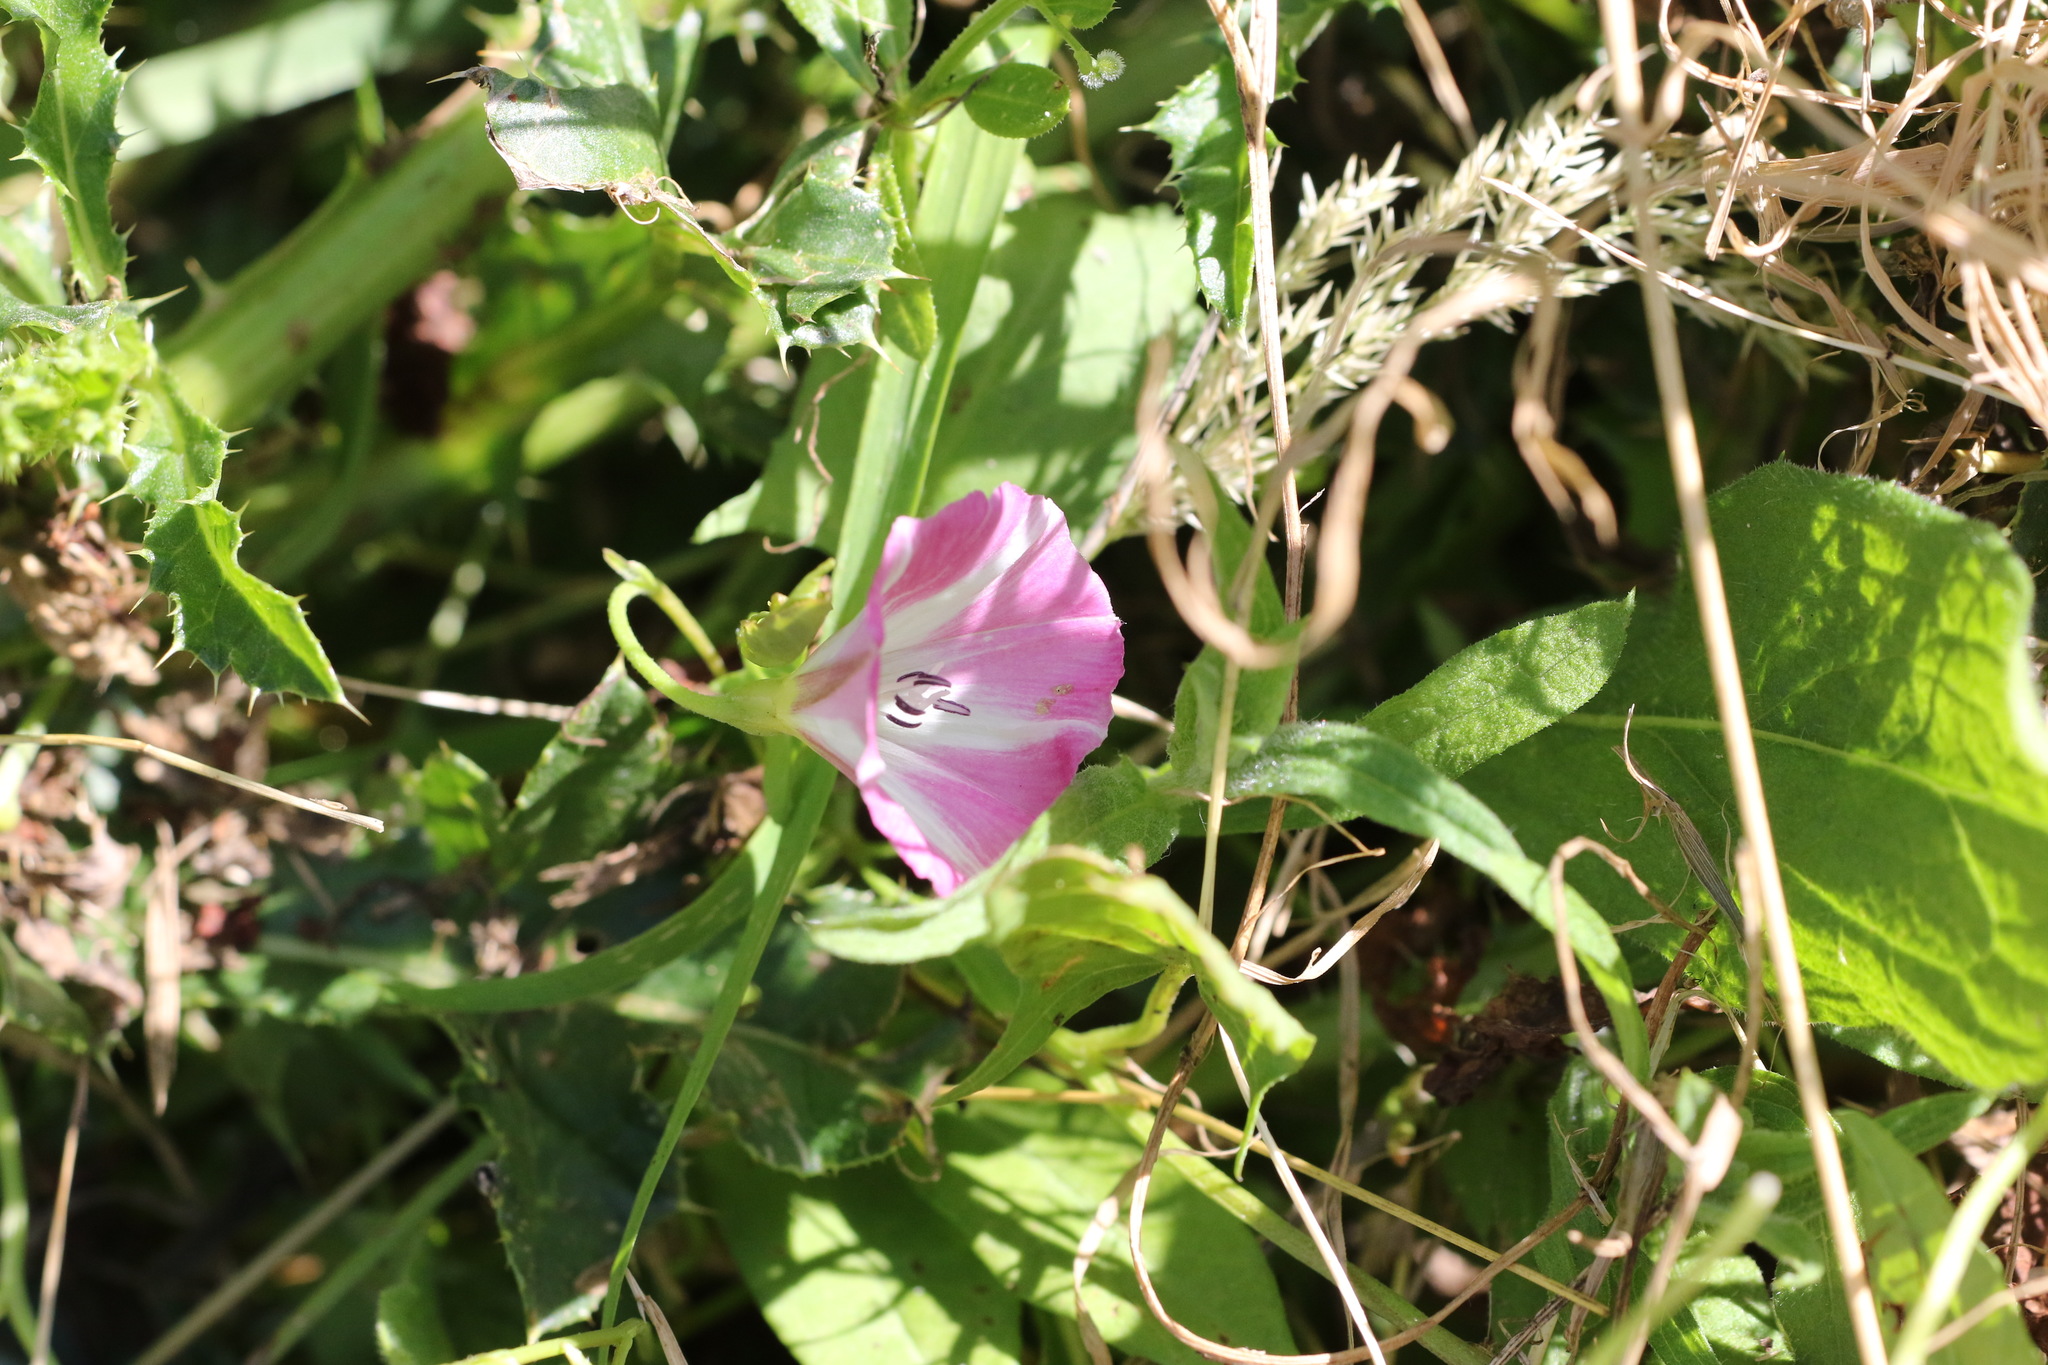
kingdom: Plantae
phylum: Tracheophyta
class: Magnoliopsida
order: Solanales
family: Convolvulaceae
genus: Convolvulus
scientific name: Convolvulus arvensis
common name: Field bindweed
